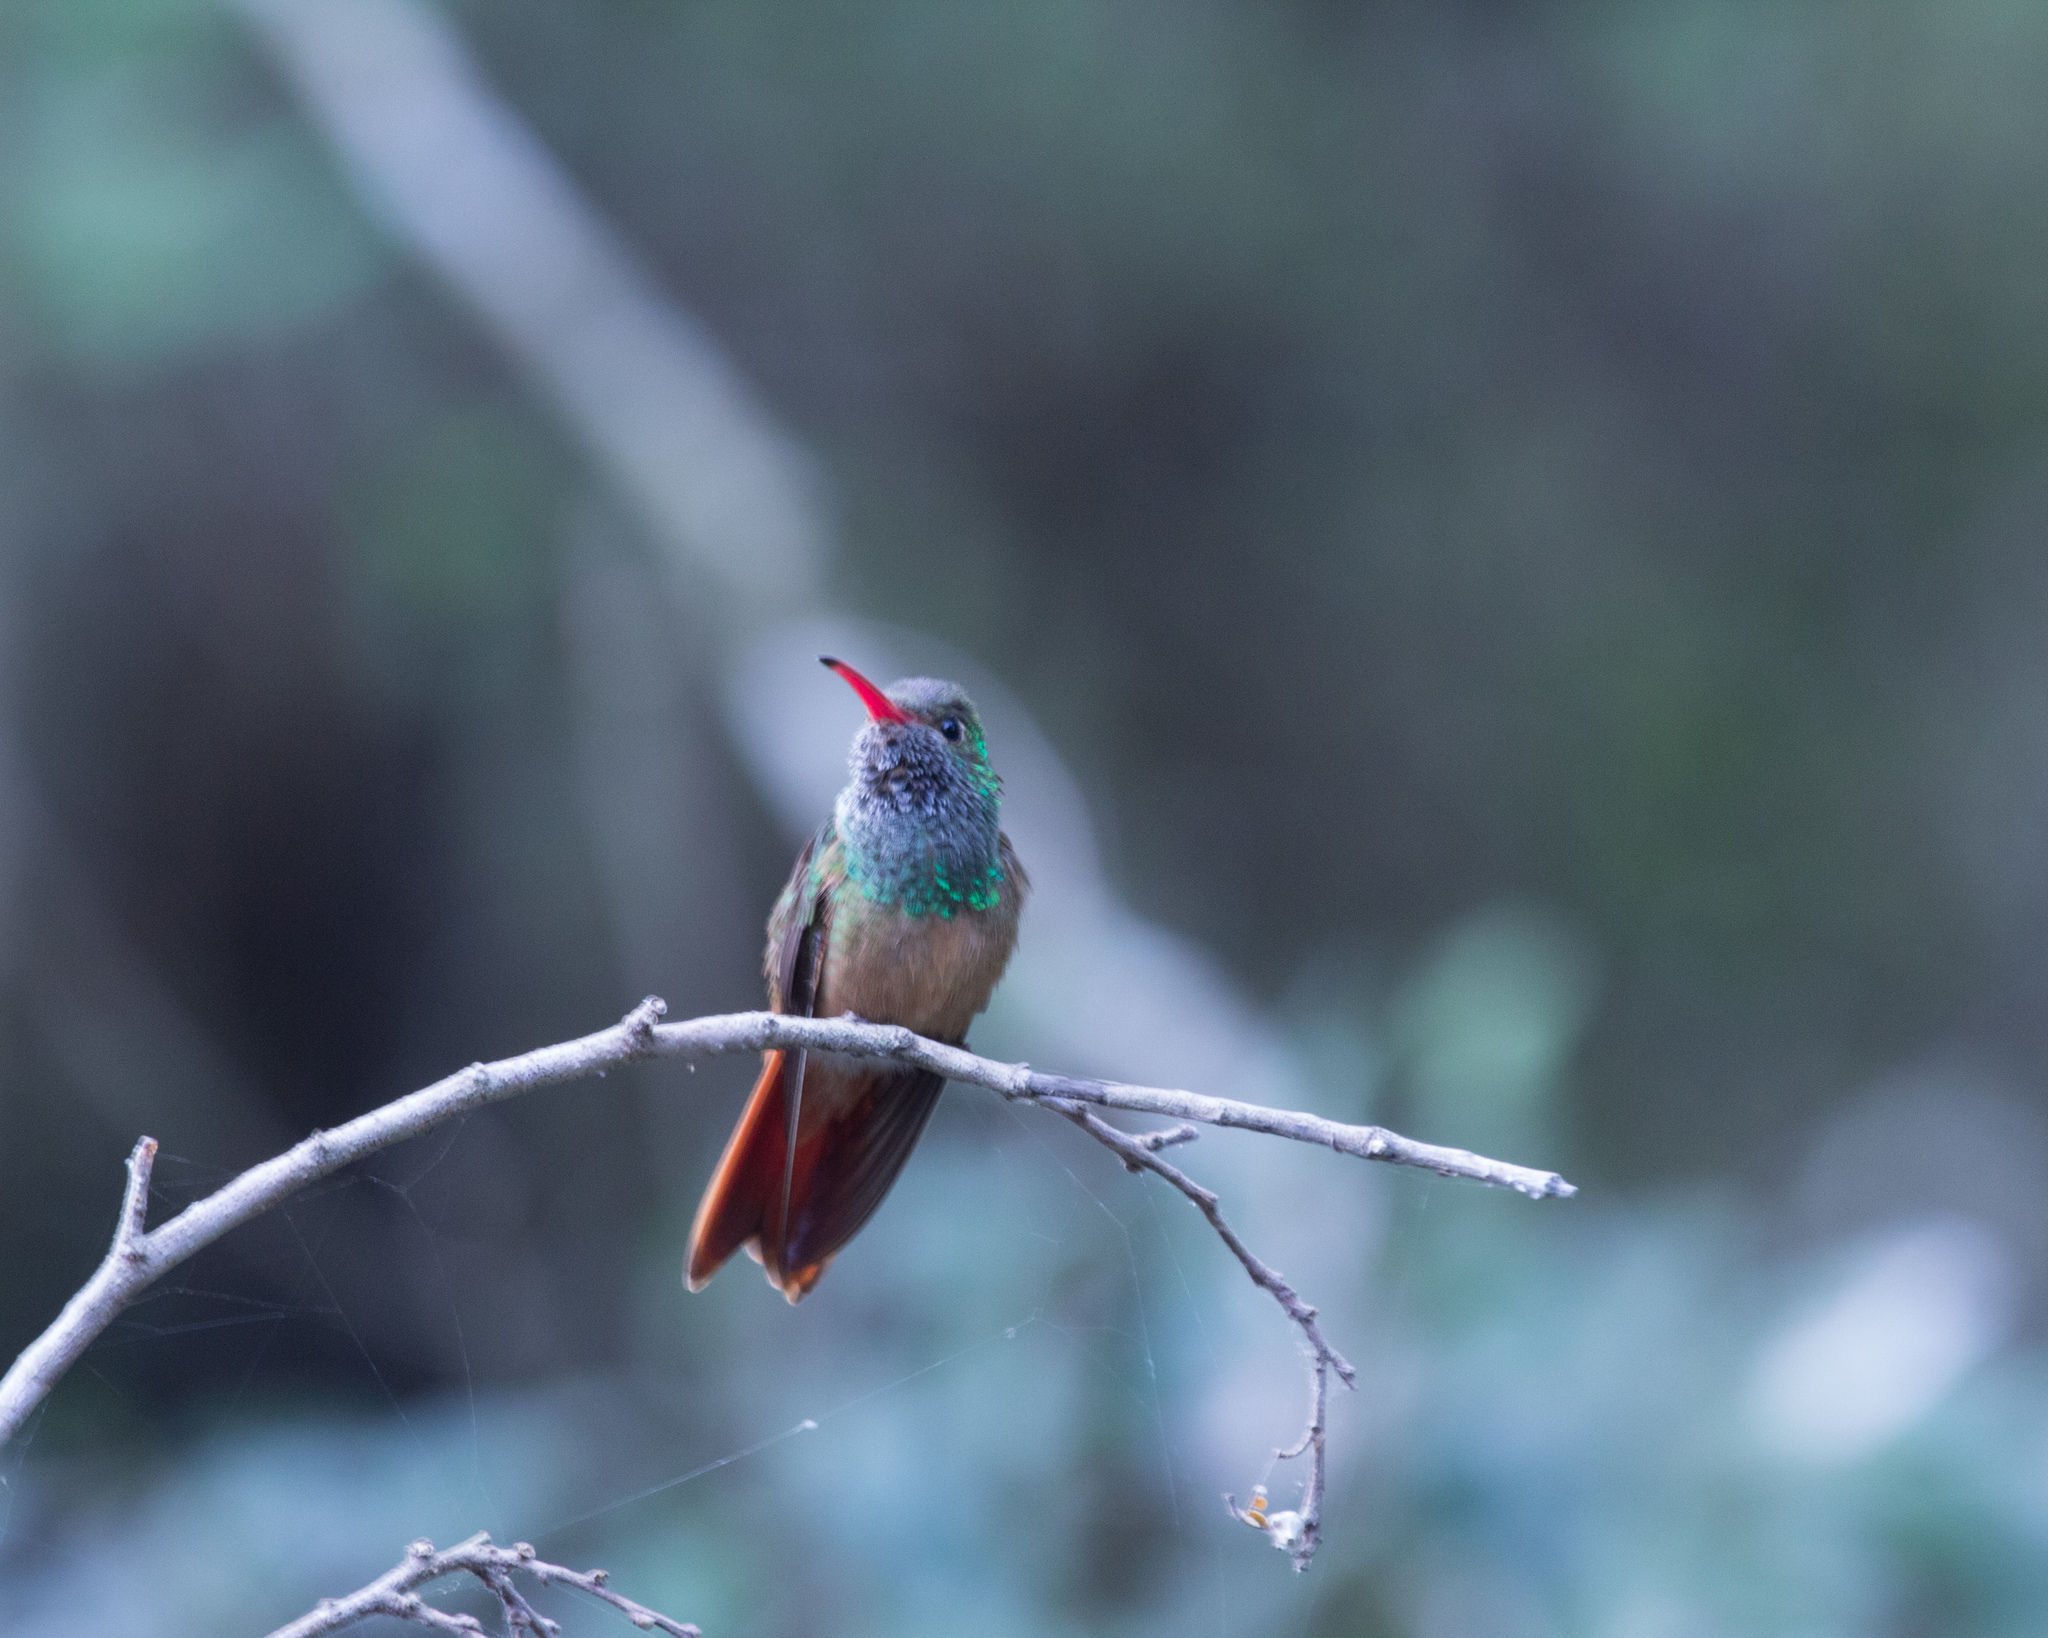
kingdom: Animalia
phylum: Chordata
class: Aves
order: Apodiformes
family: Trochilidae
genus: Amazilia
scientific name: Amazilia yucatanensis
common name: Buff-bellied hummingbird
